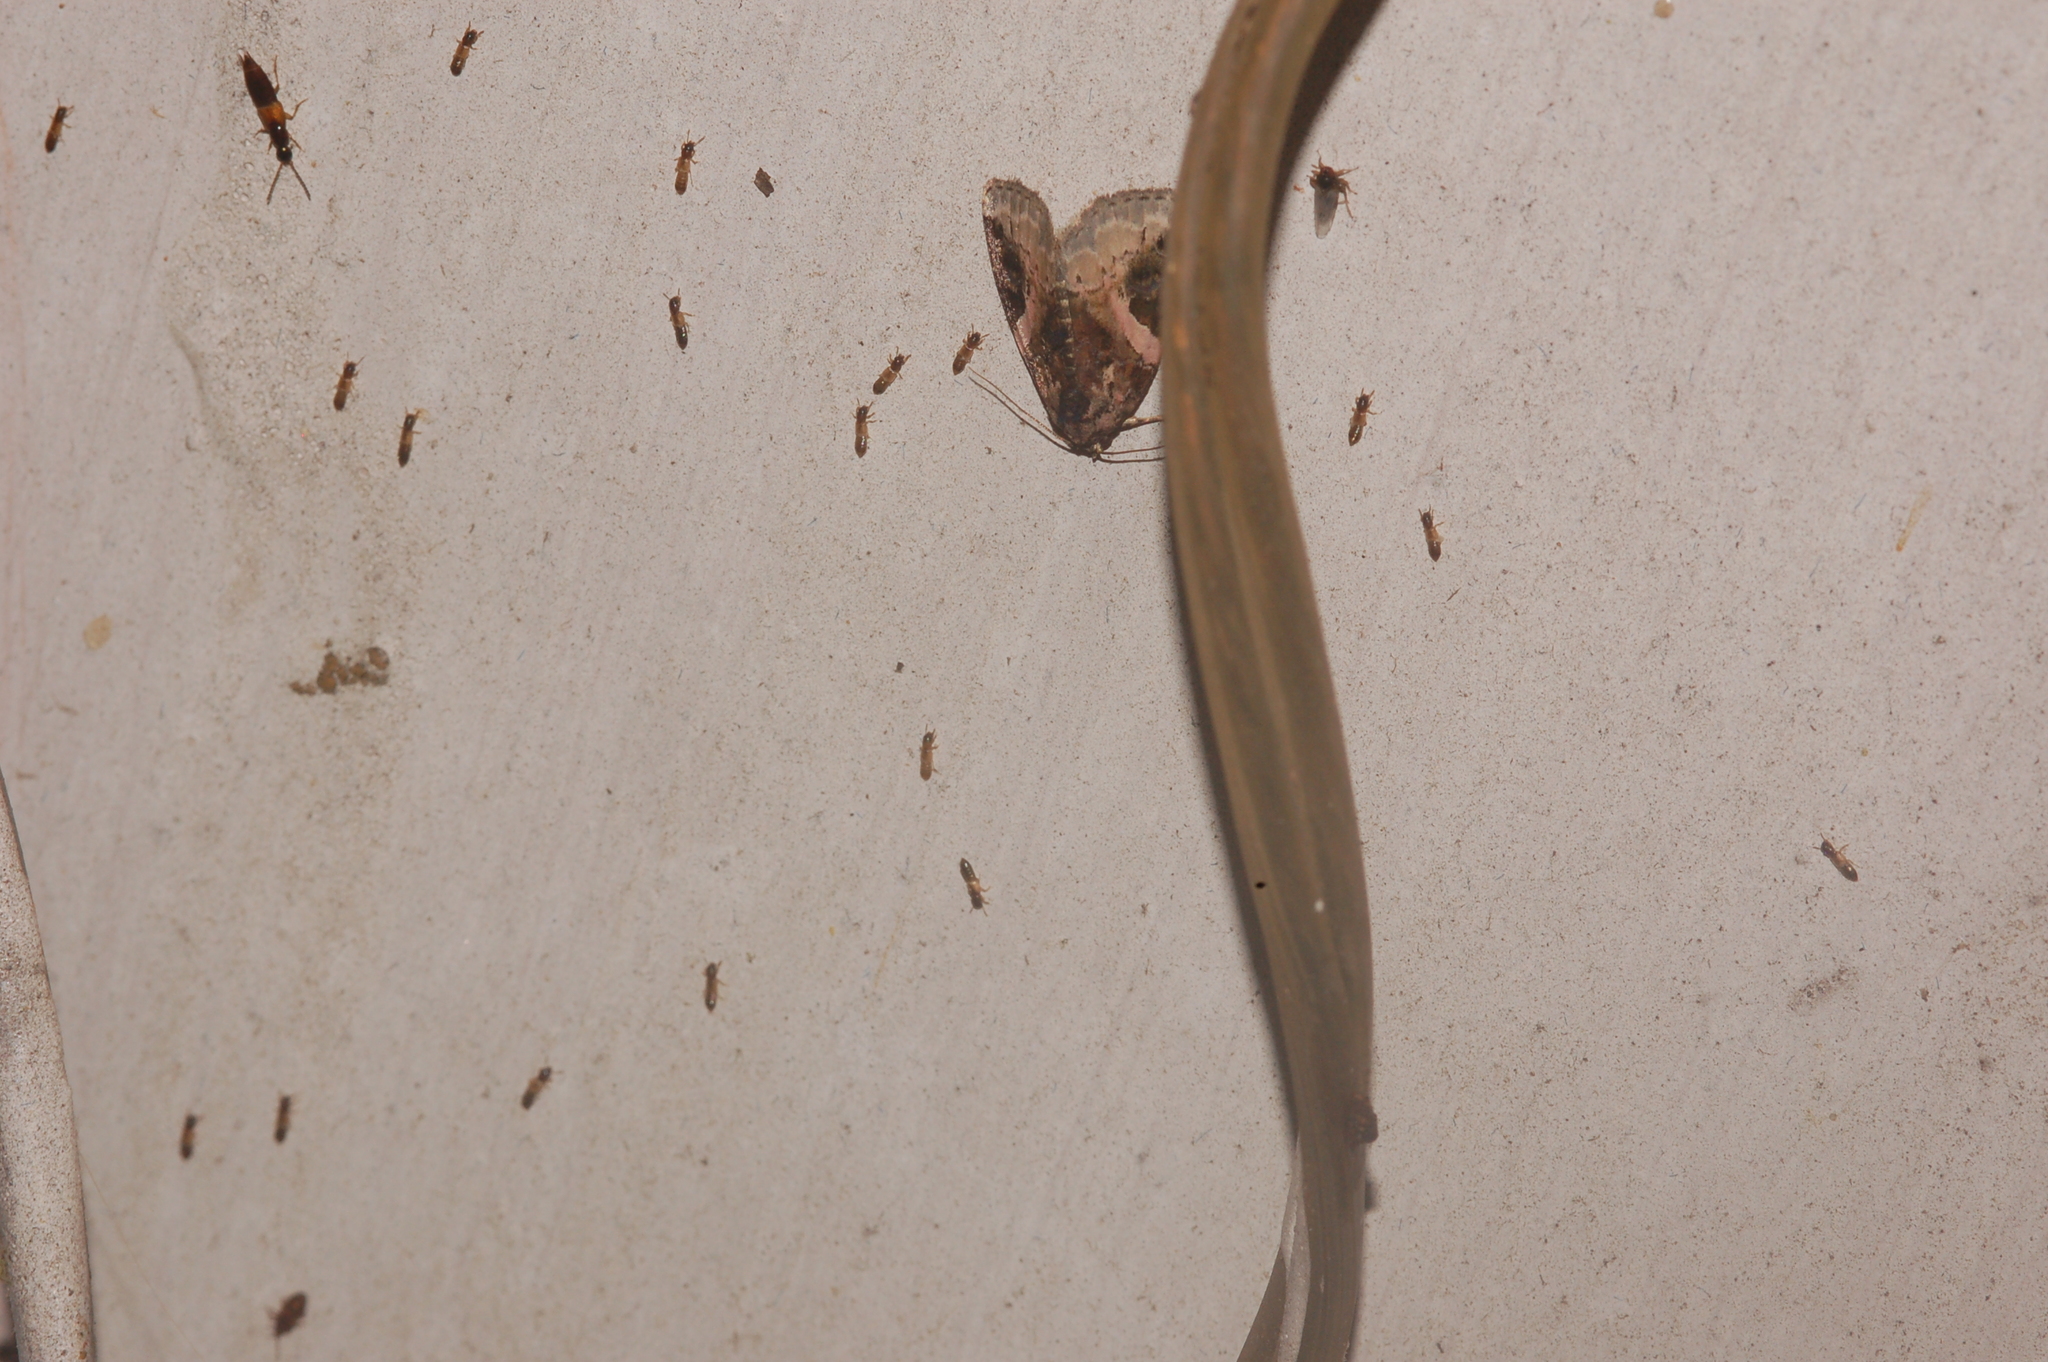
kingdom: Animalia
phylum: Arthropoda
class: Insecta
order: Lepidoptera
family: Noctuidae
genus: Pseudeustrotia
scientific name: Pseudeustrotia carneola
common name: Pink-barred lithacodia moth
